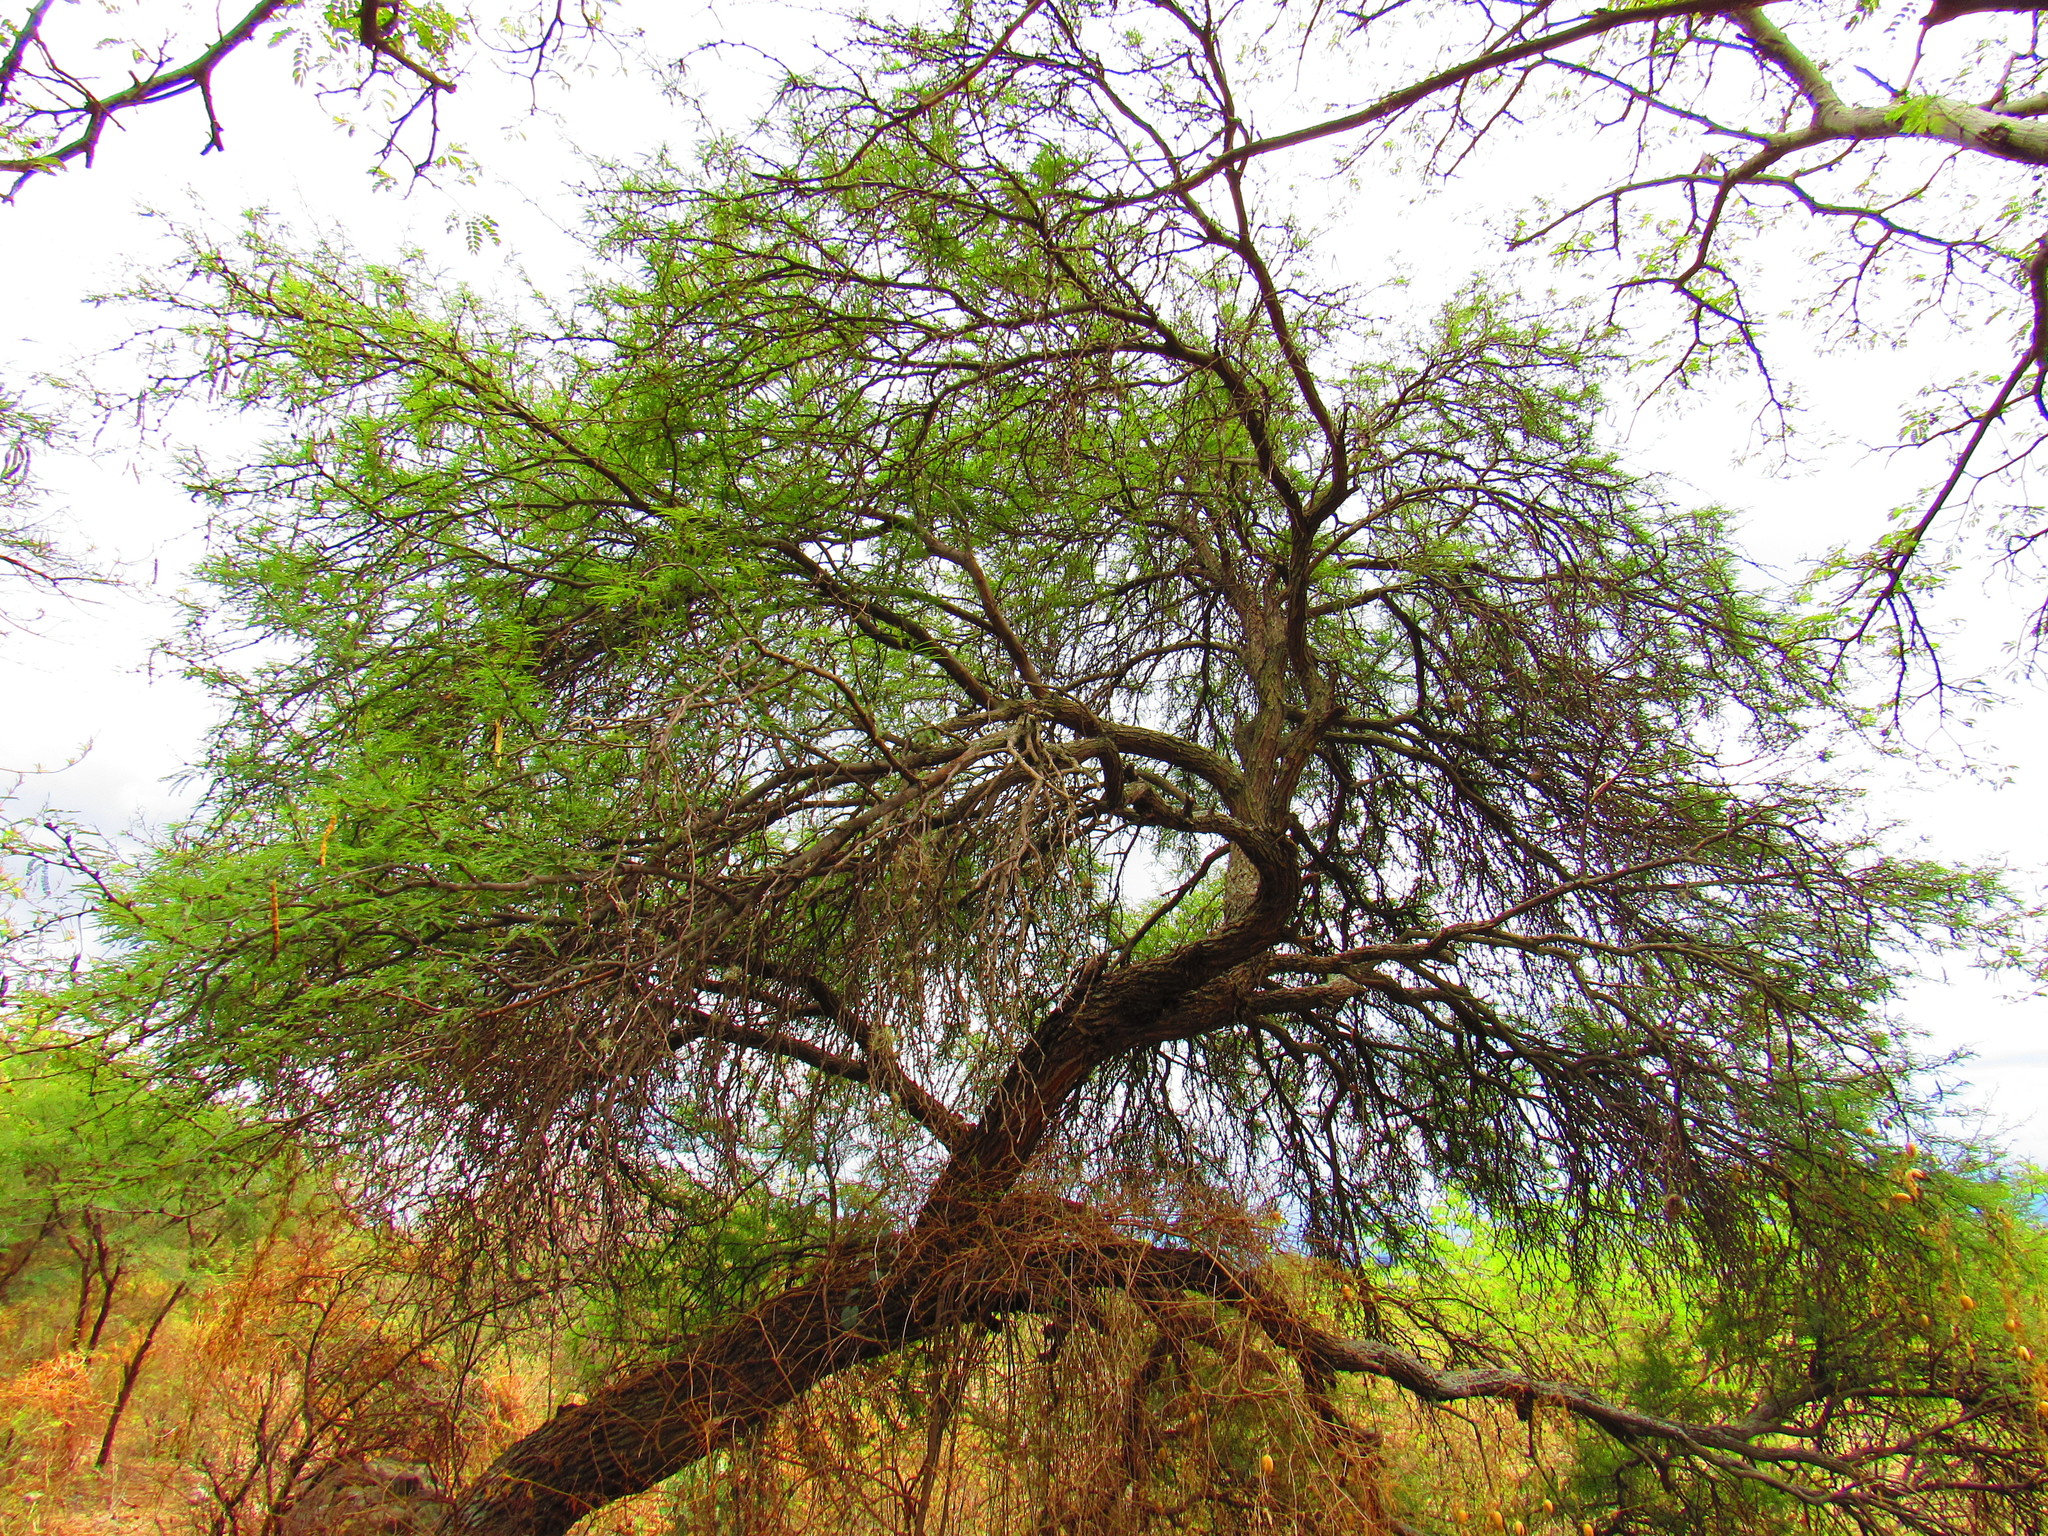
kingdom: Plantae
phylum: Tracheophyta
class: Magnoliopsida
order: Fabales
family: Fabaceae
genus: Prosopis
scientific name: Prosopis laevigata
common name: Smooth mesquite
